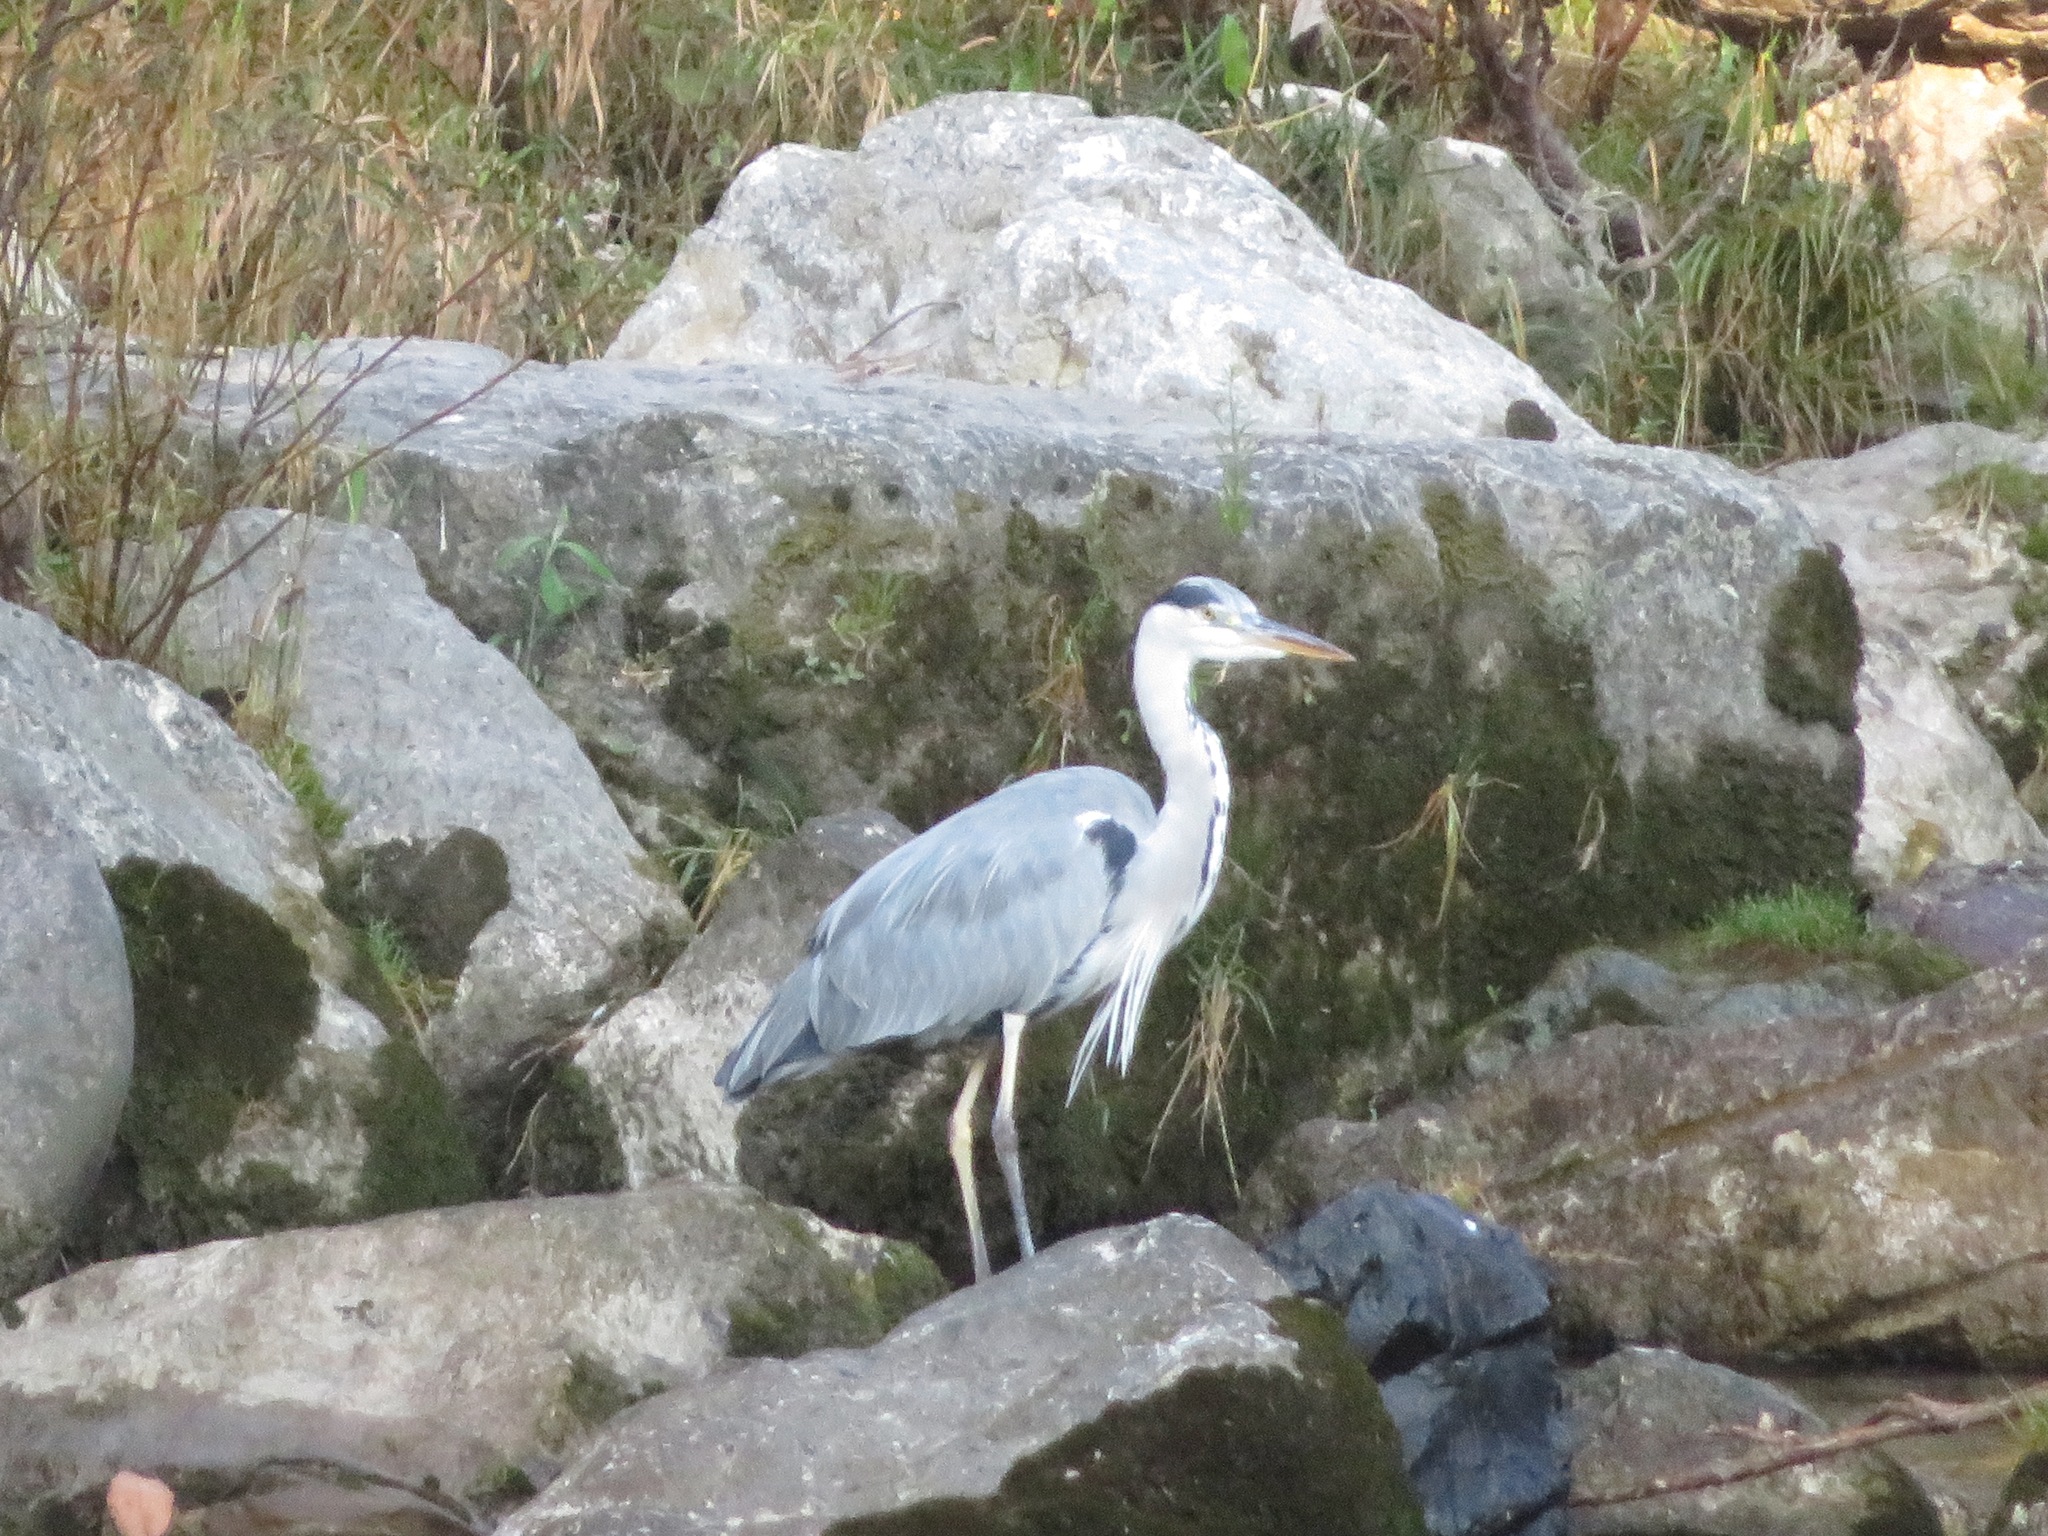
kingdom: Animalia
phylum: Chordata
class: Aves
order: Pelecaniformes
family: Ardeidae
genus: Ardea
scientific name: Ardea cinerea
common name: Grey heron
